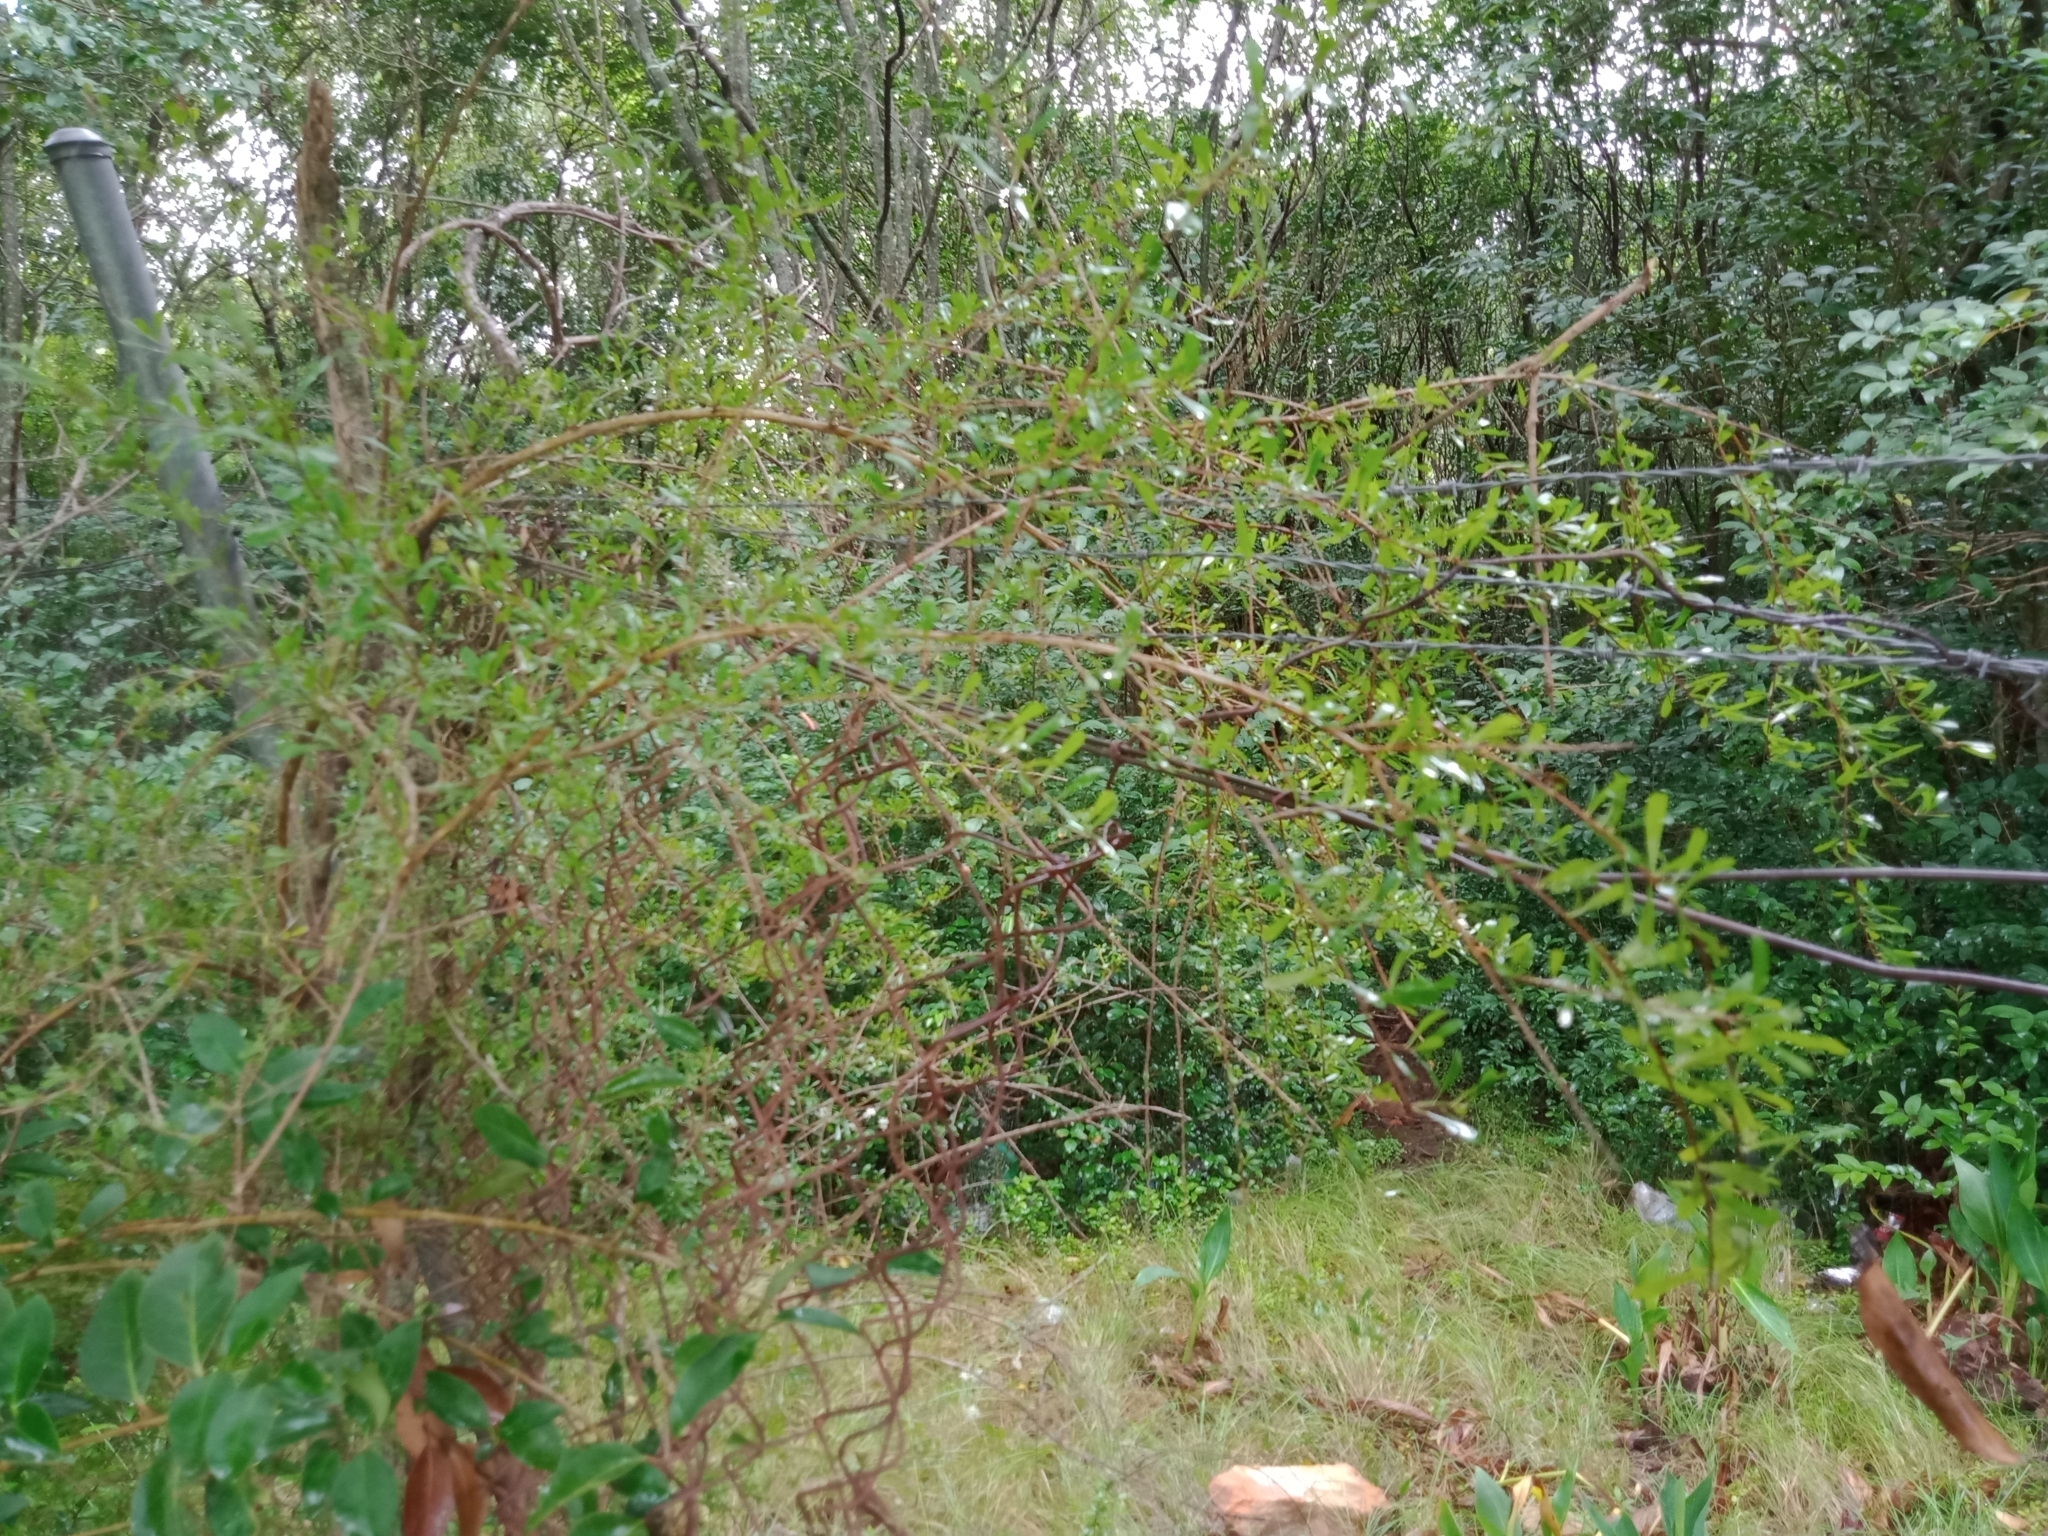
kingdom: Plantae
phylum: Tracheophyta
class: Magnoliopsida
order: Apiales
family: Pittosporaceae
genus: Bursaria
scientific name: Bursaria spinosa
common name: Australian blackthorn
